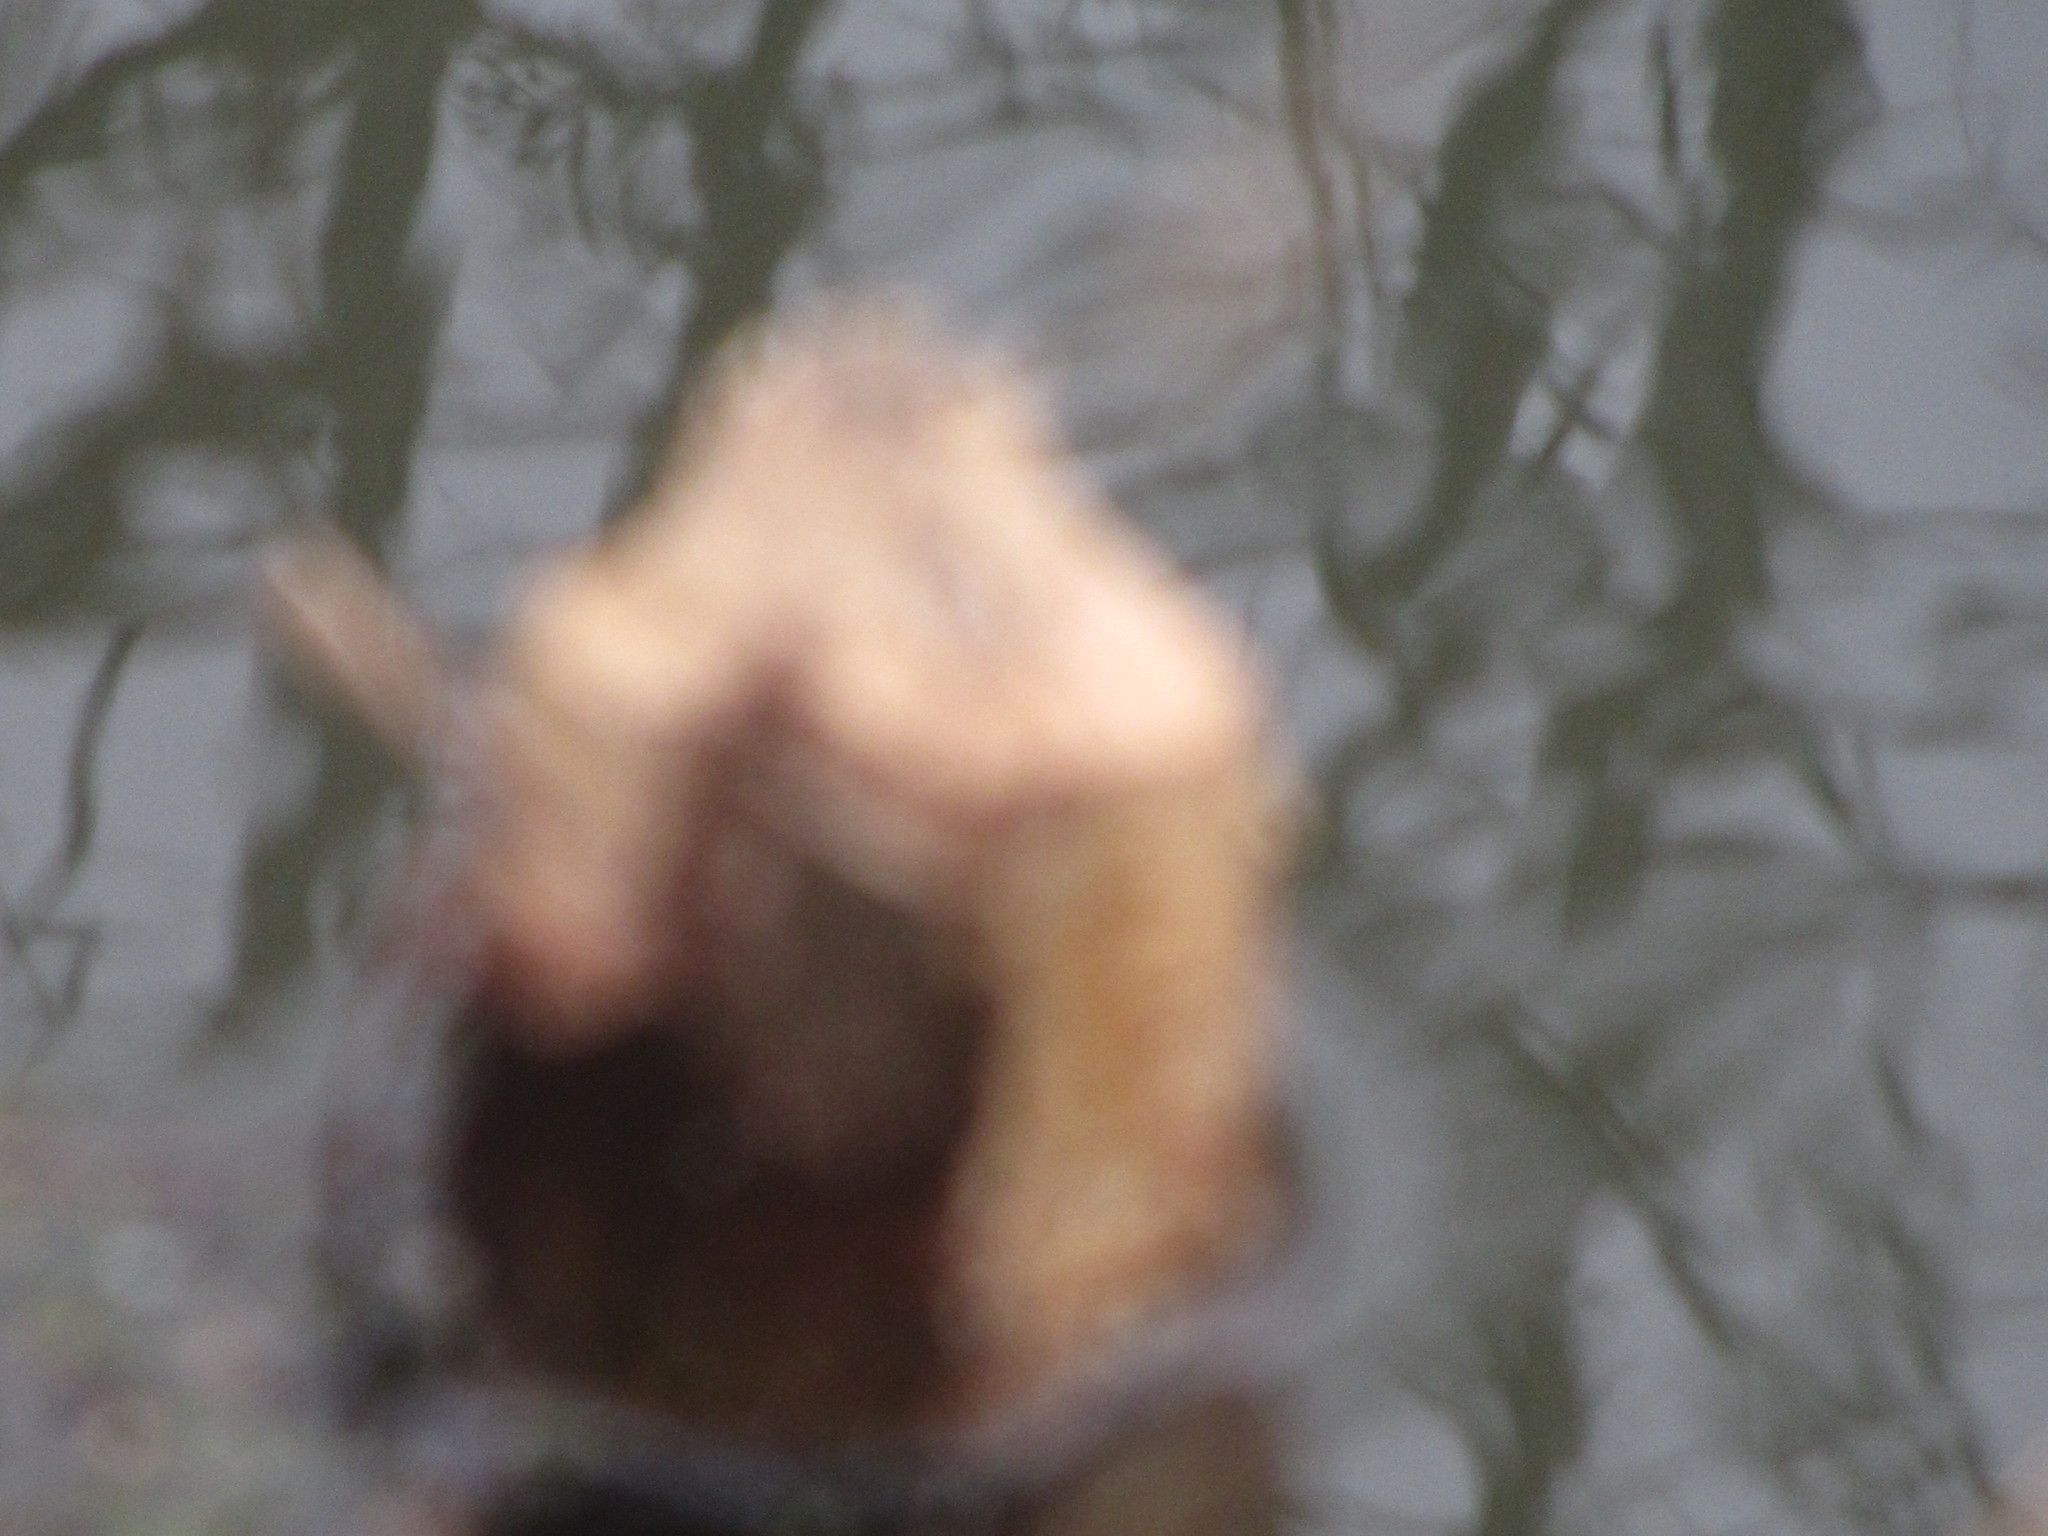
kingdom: Animalia
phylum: Chordata
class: Mammalia
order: Rodentia
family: Castoridae
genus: Castor
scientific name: Castor canadensis
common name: American beaver
